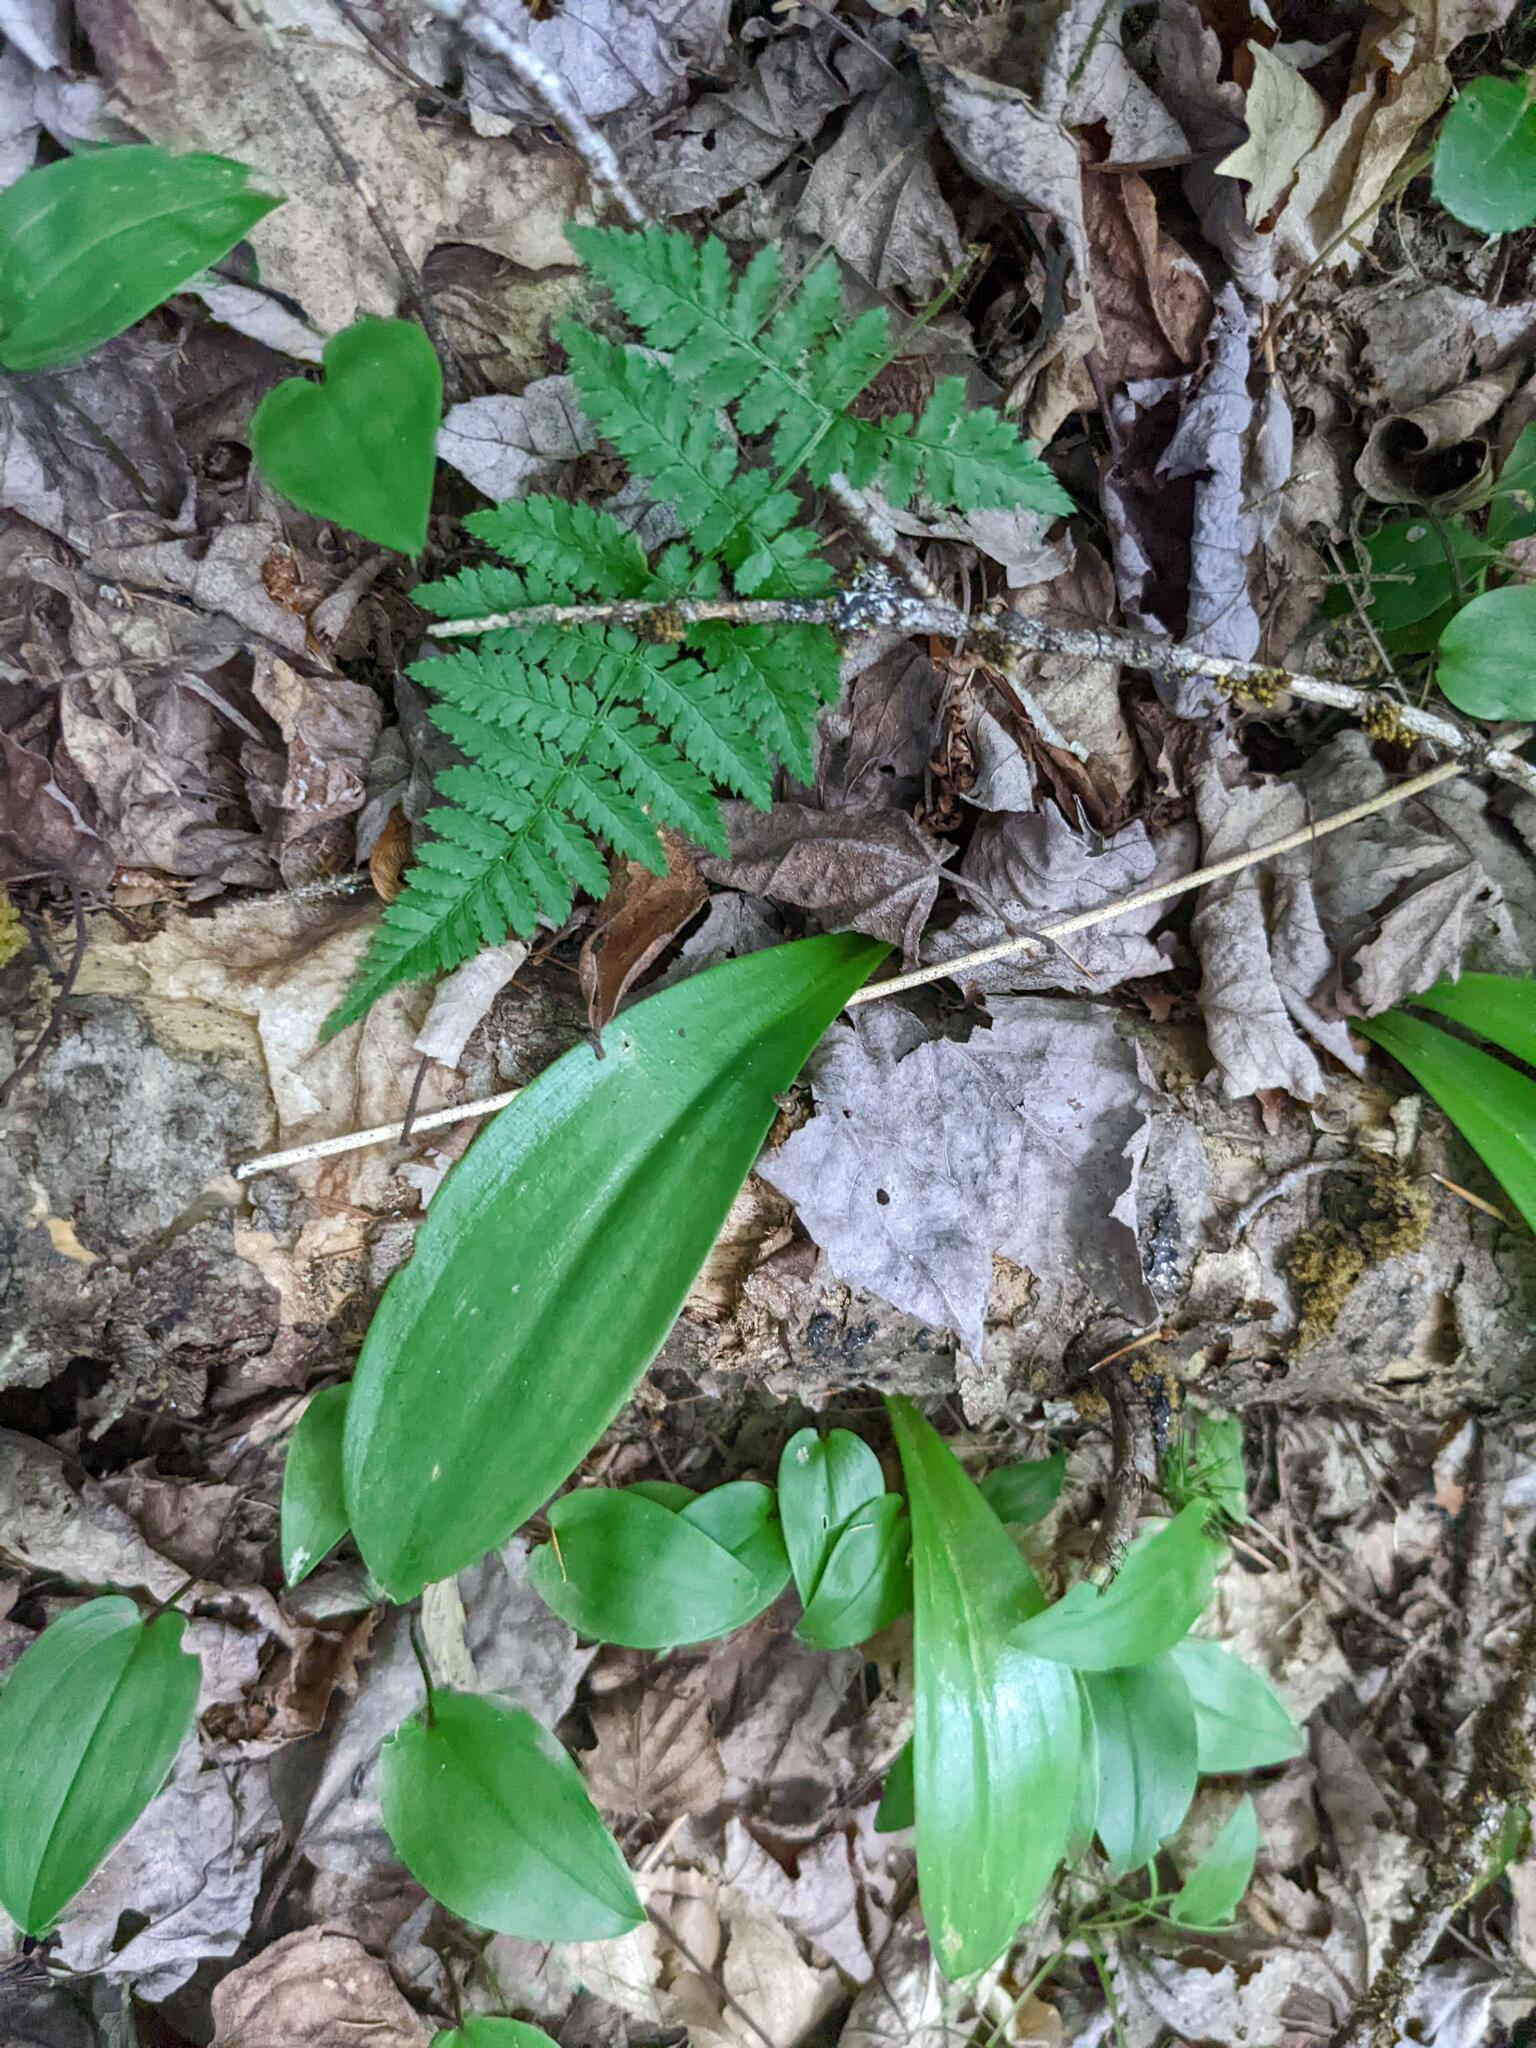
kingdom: Plantae
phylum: Tracheophyta
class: Liliopsida
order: Liliales
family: Liliaceae
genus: Clintonia
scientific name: Clintonia borealis
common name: Yellow clintonia
